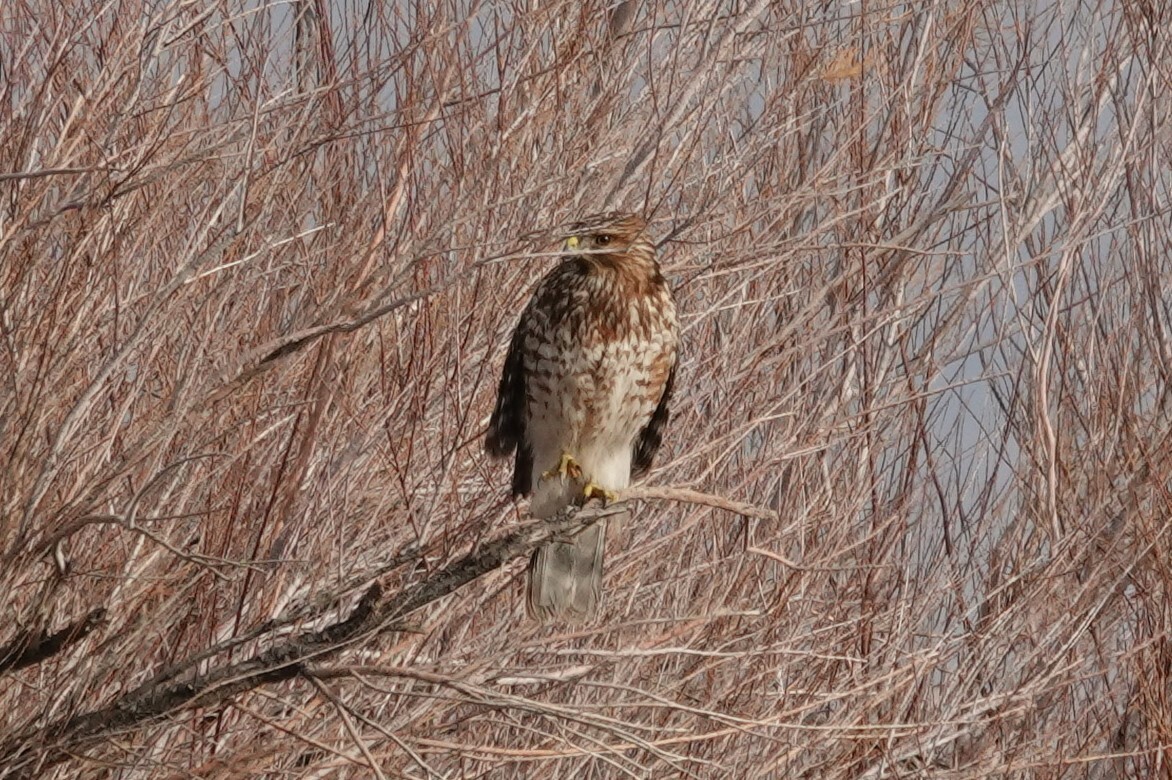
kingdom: Animalia
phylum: Chordata
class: Aves
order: Accipitriformes
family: Accipitridae
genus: Buteo
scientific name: Buteo lineatus
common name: Red-shouldered hawk
